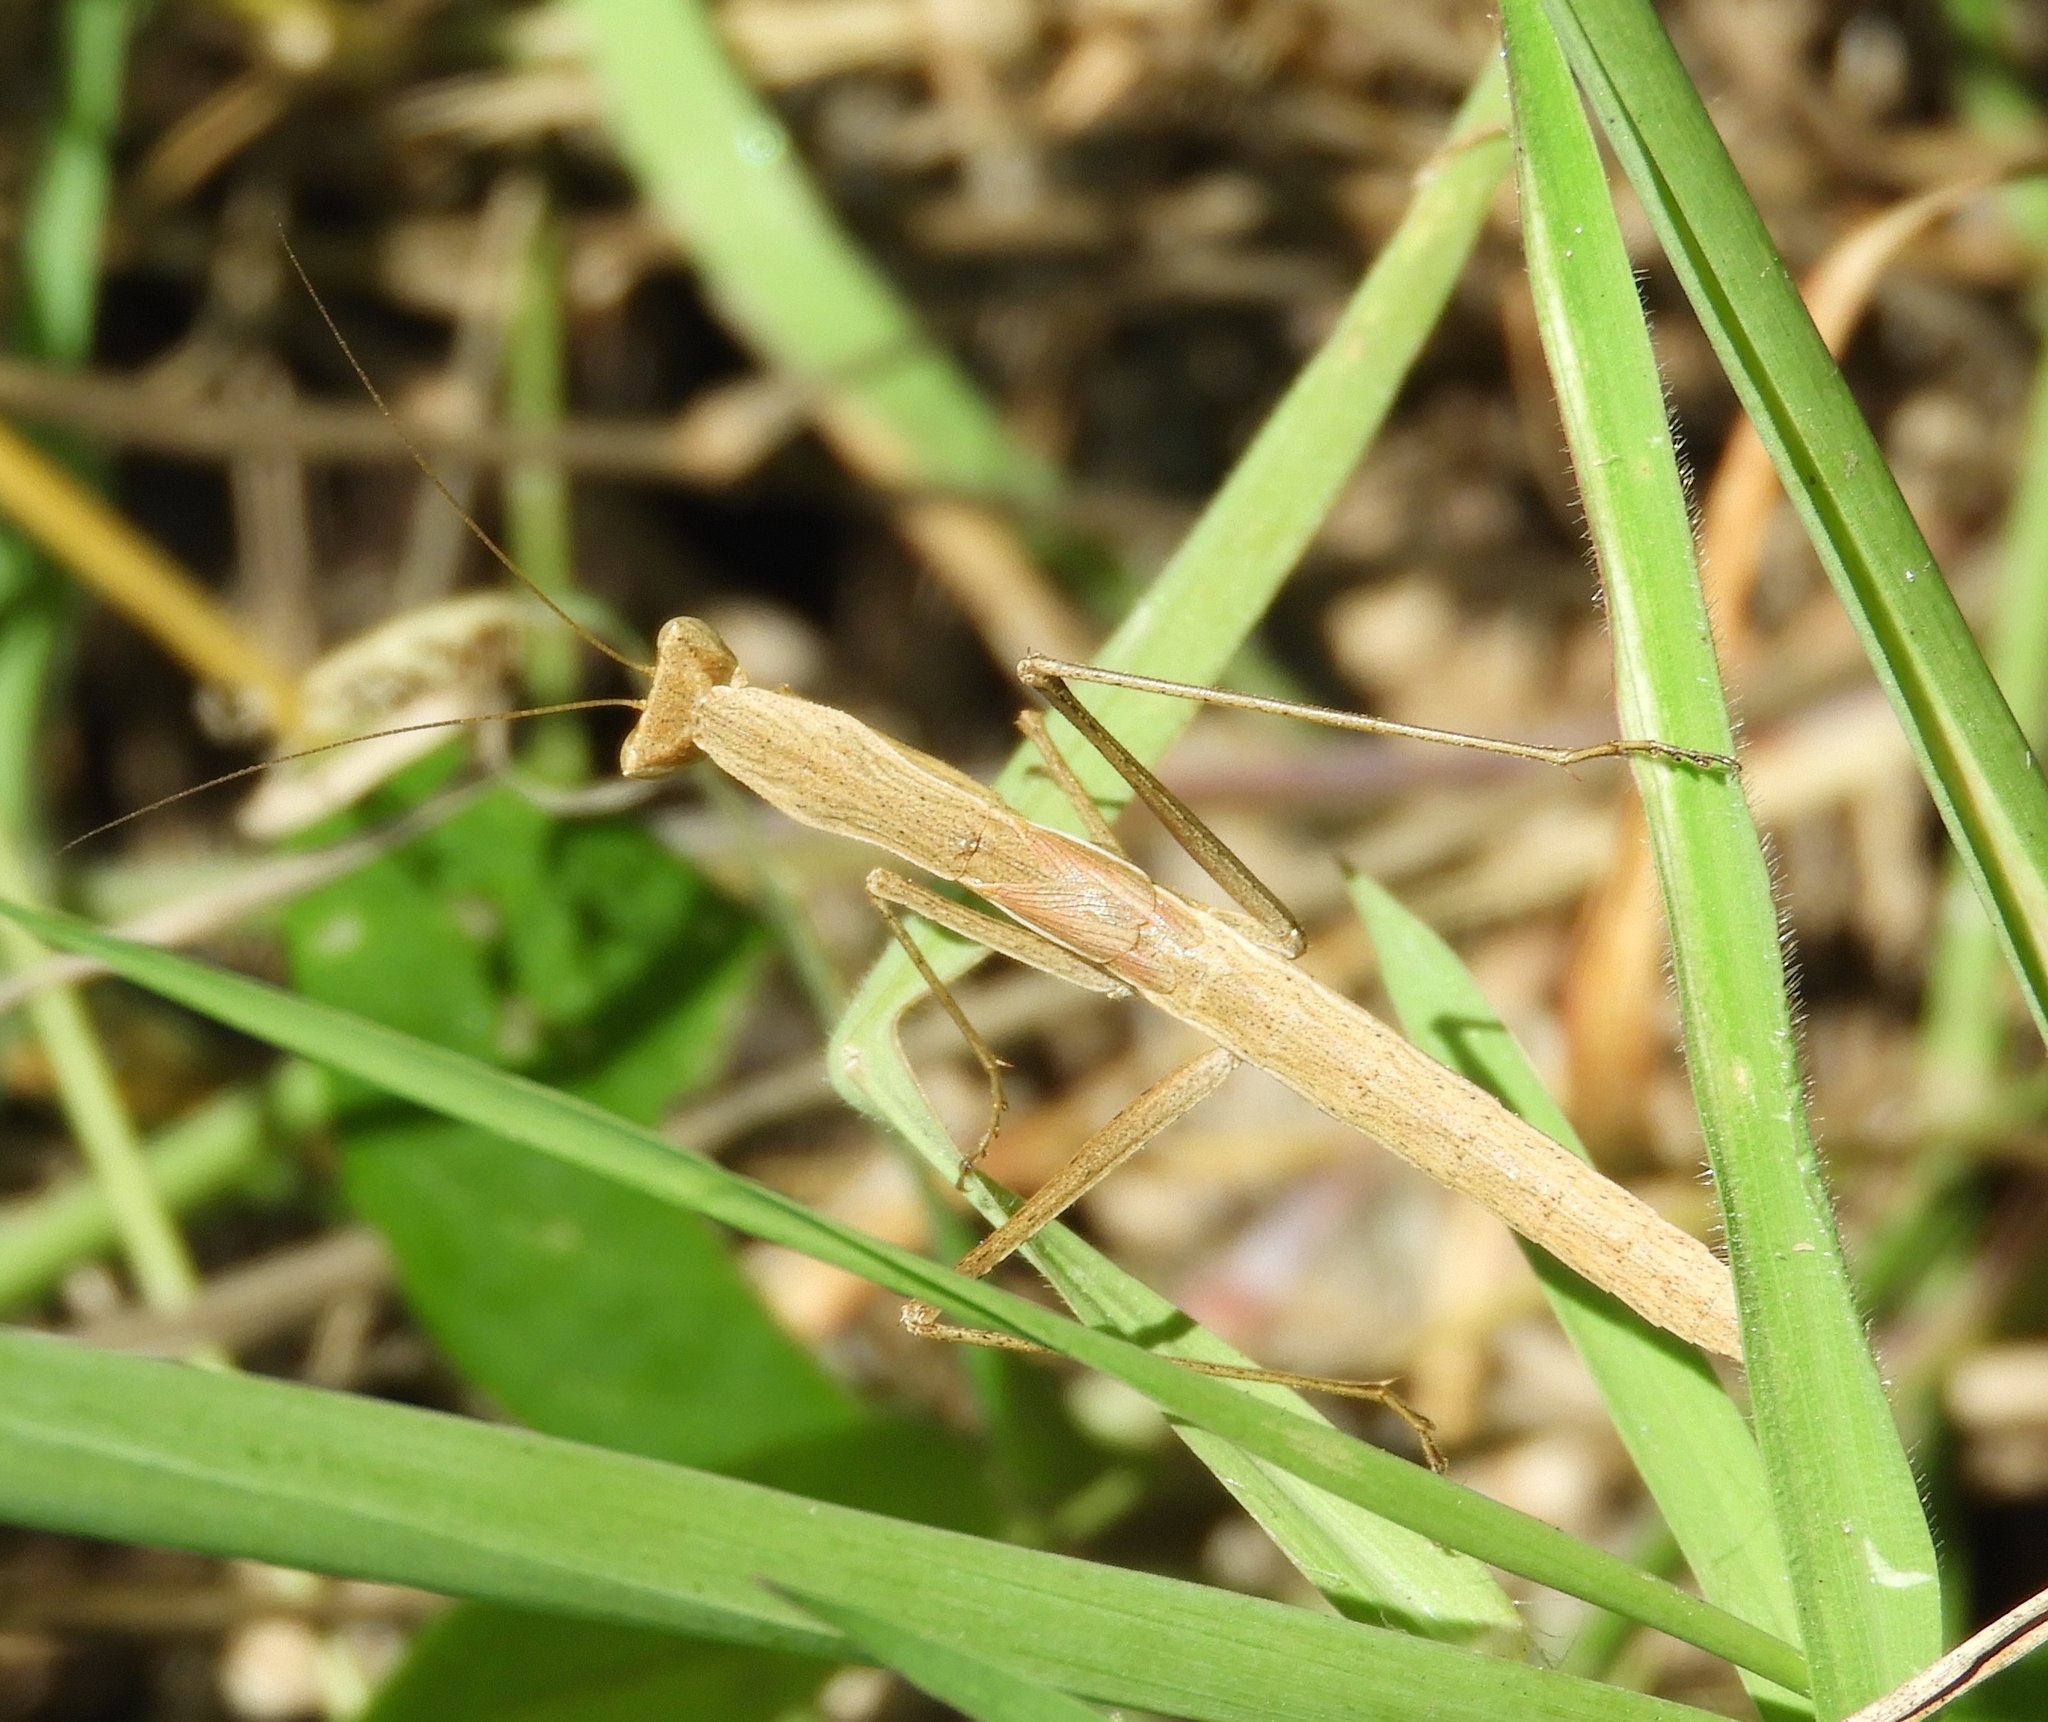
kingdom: Animalia
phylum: Arthropoda
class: Insecta
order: Mantodea
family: Amelidae
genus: Yersinia
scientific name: Yersinia mexicana
